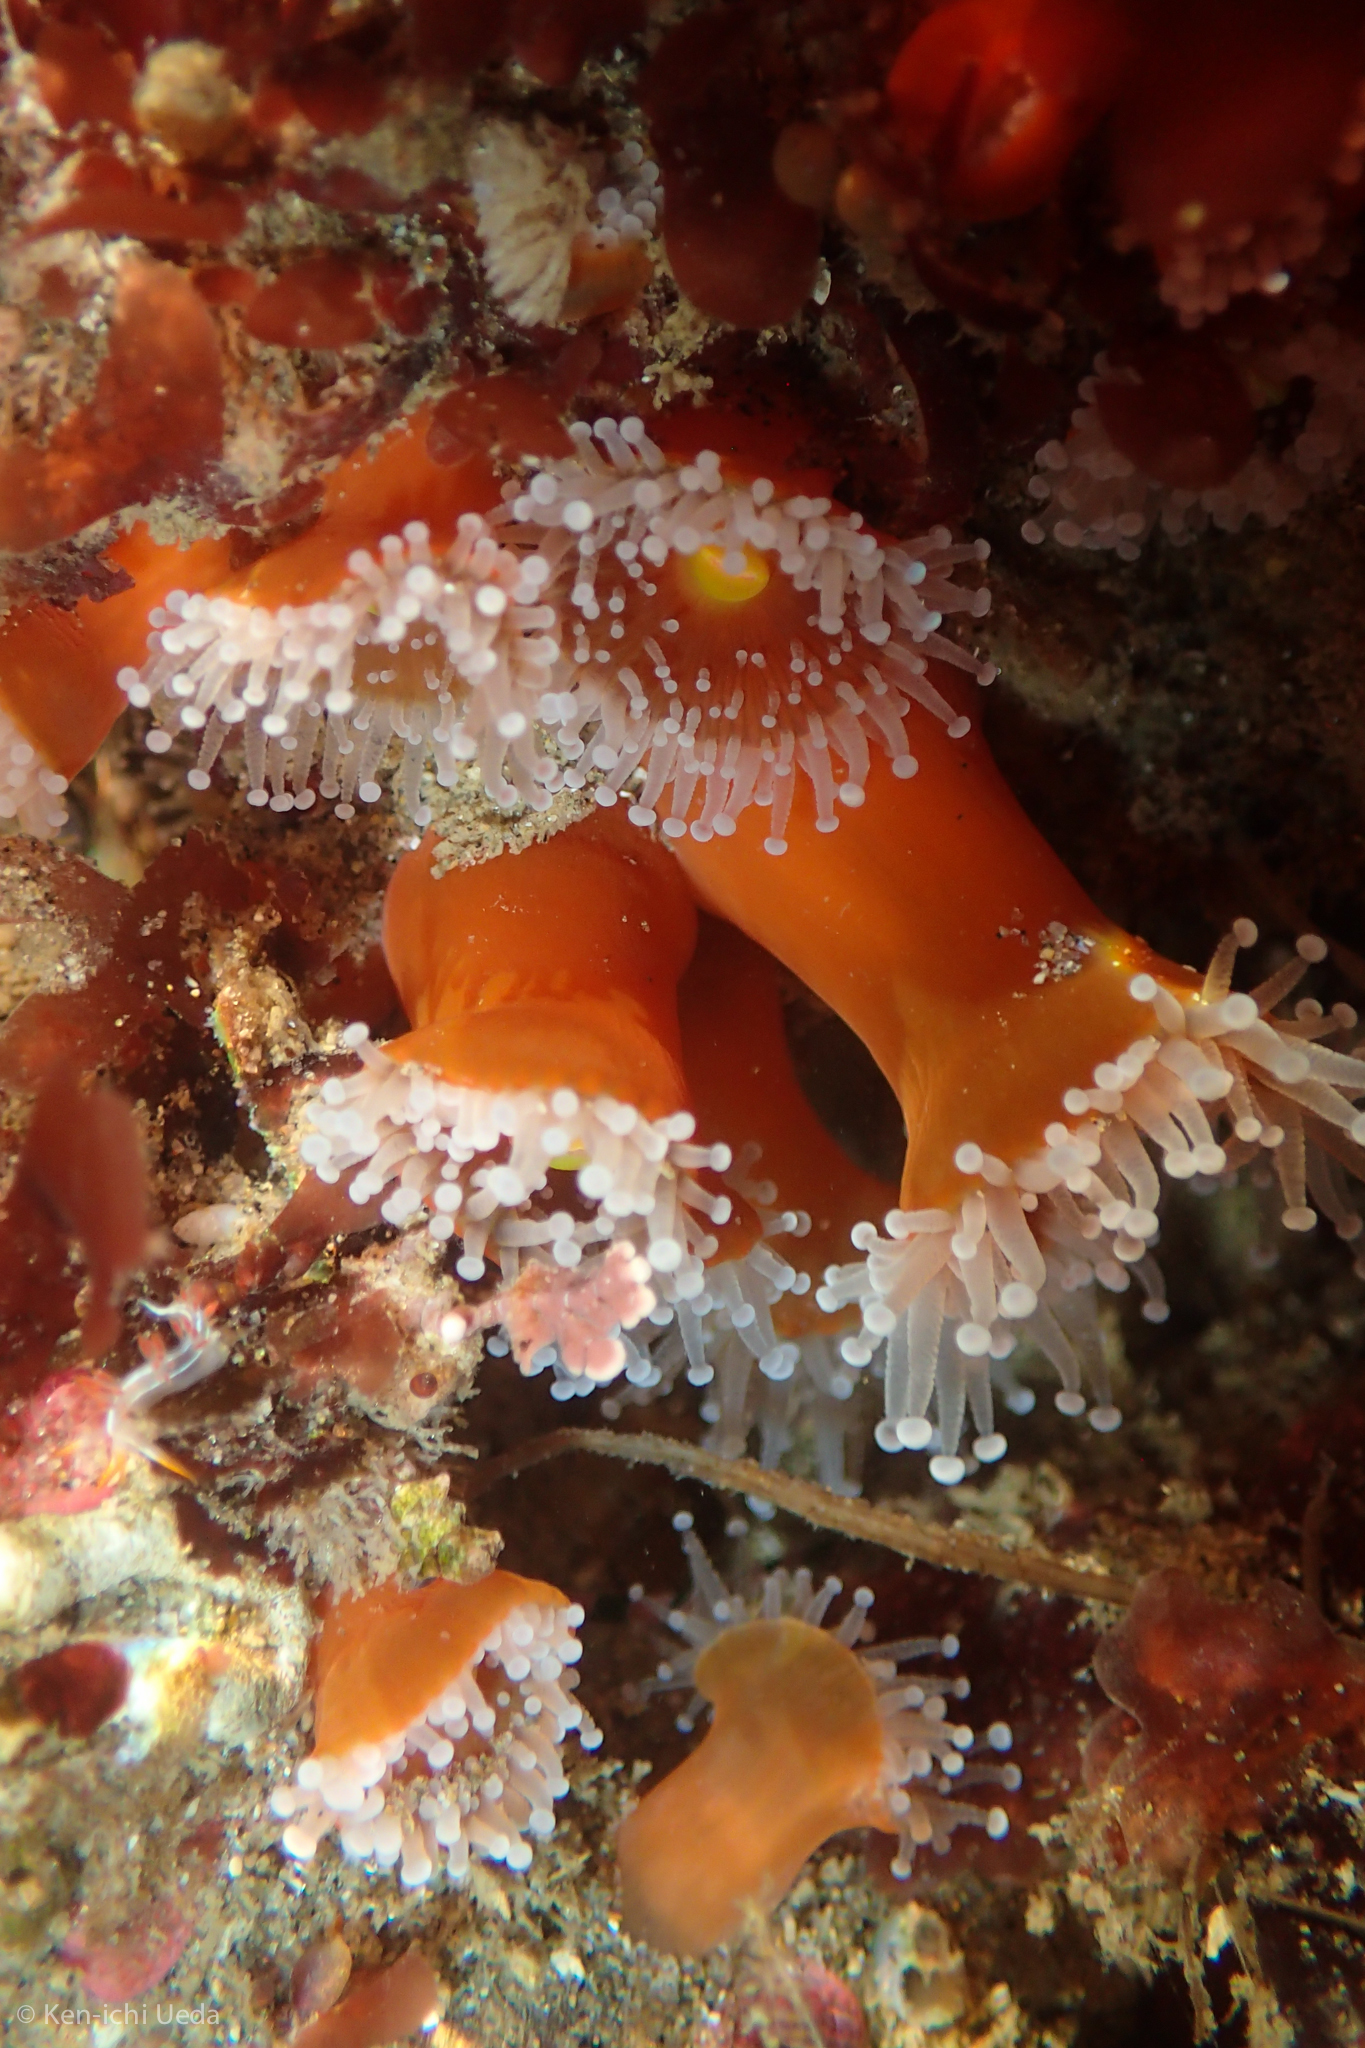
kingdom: Animalia
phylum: Cnidaria
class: Anthozoa
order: Corallimorpharia
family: Corallimorphidae
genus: Corynactis
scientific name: Corynactis californica
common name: Strawberry corallimorpharian
